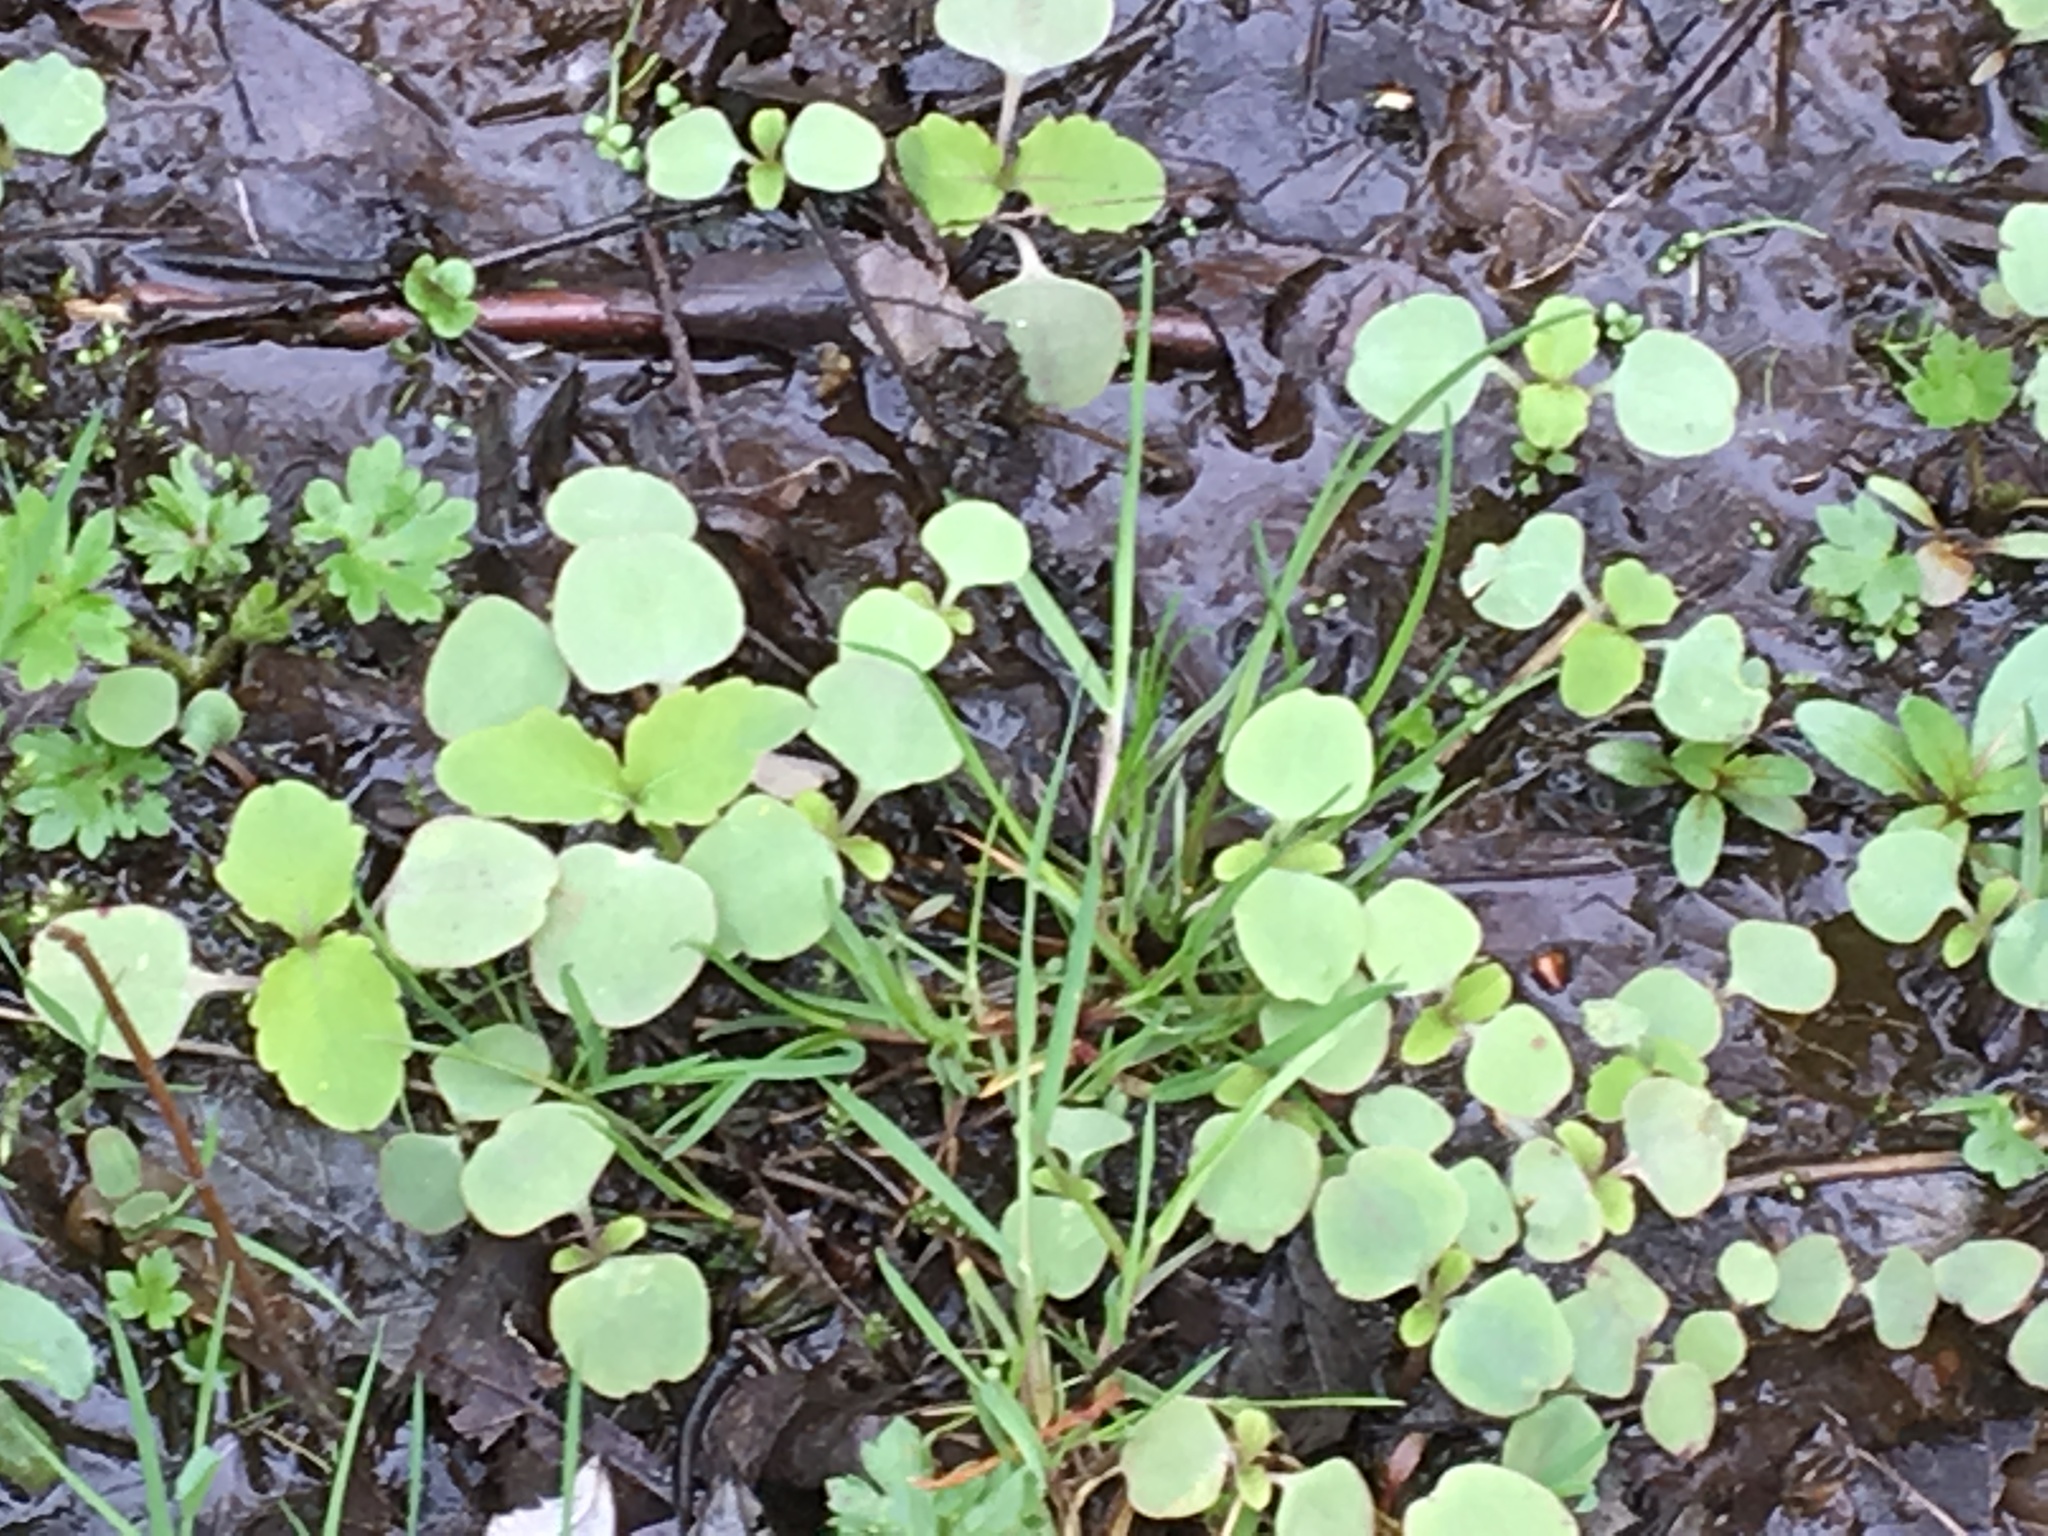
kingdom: Plantae
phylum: Tracheophyta
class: Magnoliopsida
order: Ericales
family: Balsaminaceae
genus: Impatiens
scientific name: Impatiens capensis
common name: Orange balsam
